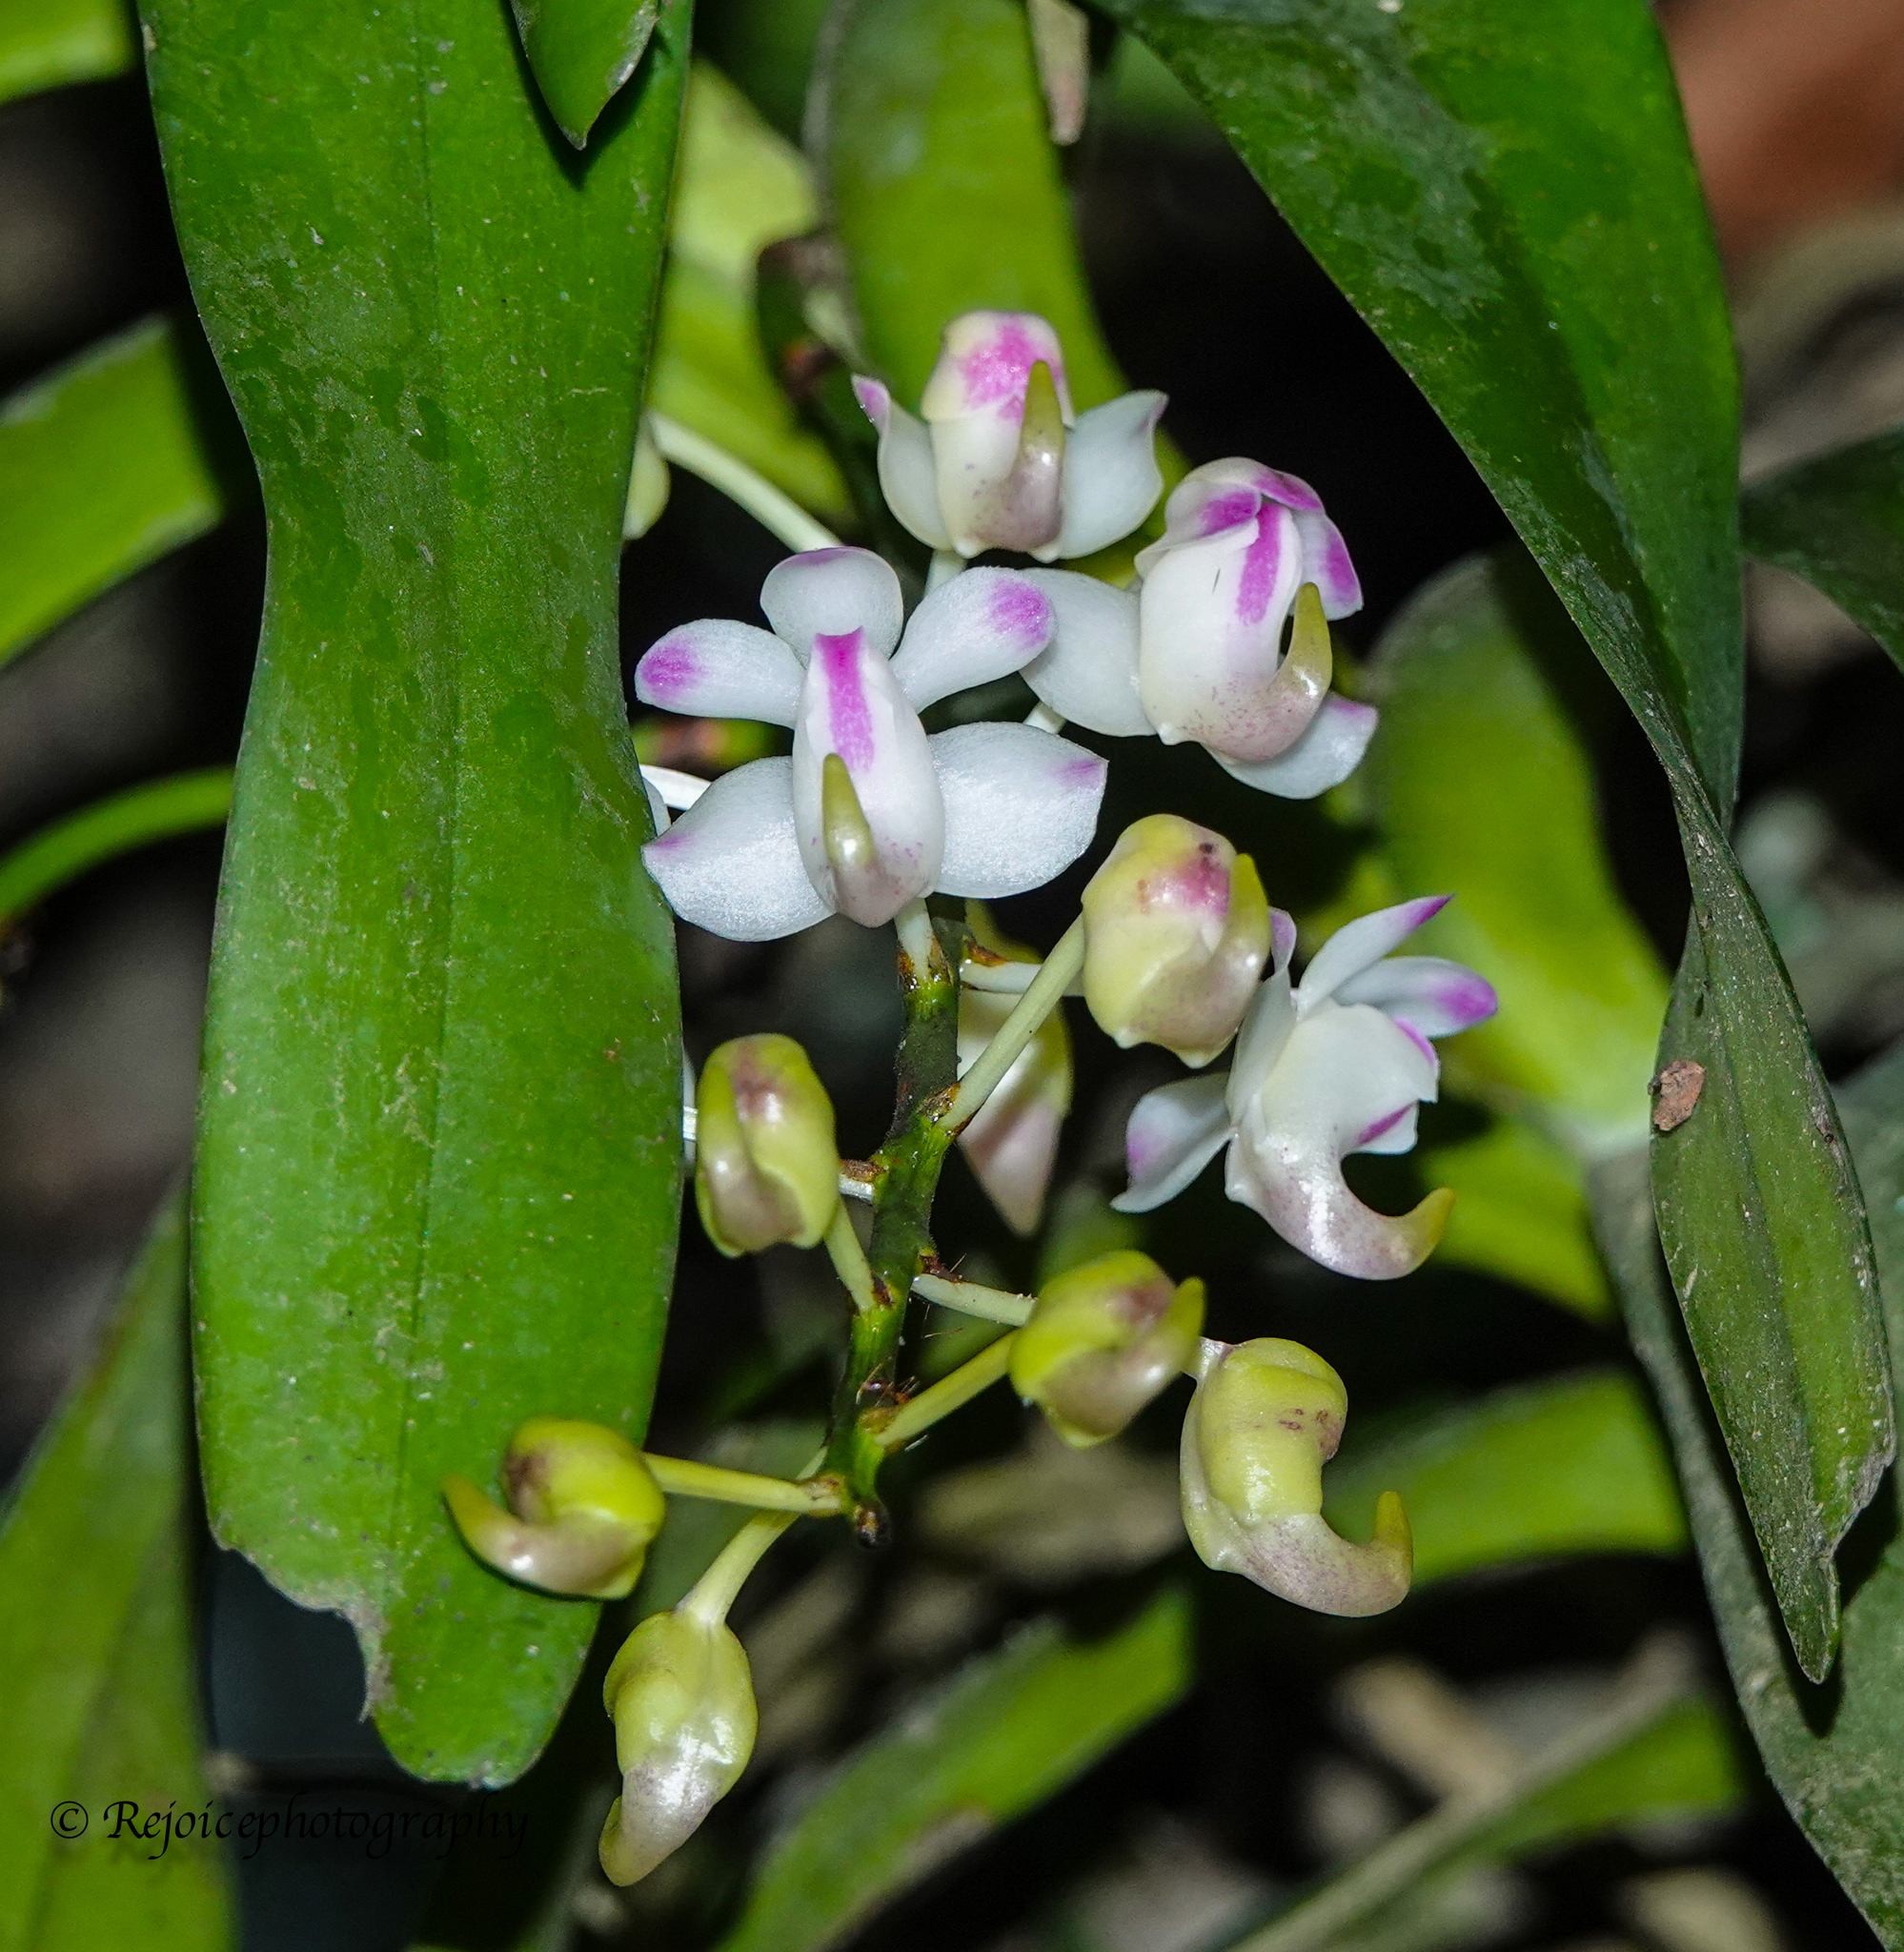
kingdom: Plantae
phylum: Tracheophyta
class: Liliopsida
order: Asparagales
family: Orchidaceae
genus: Aerides
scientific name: Aerides odorata
